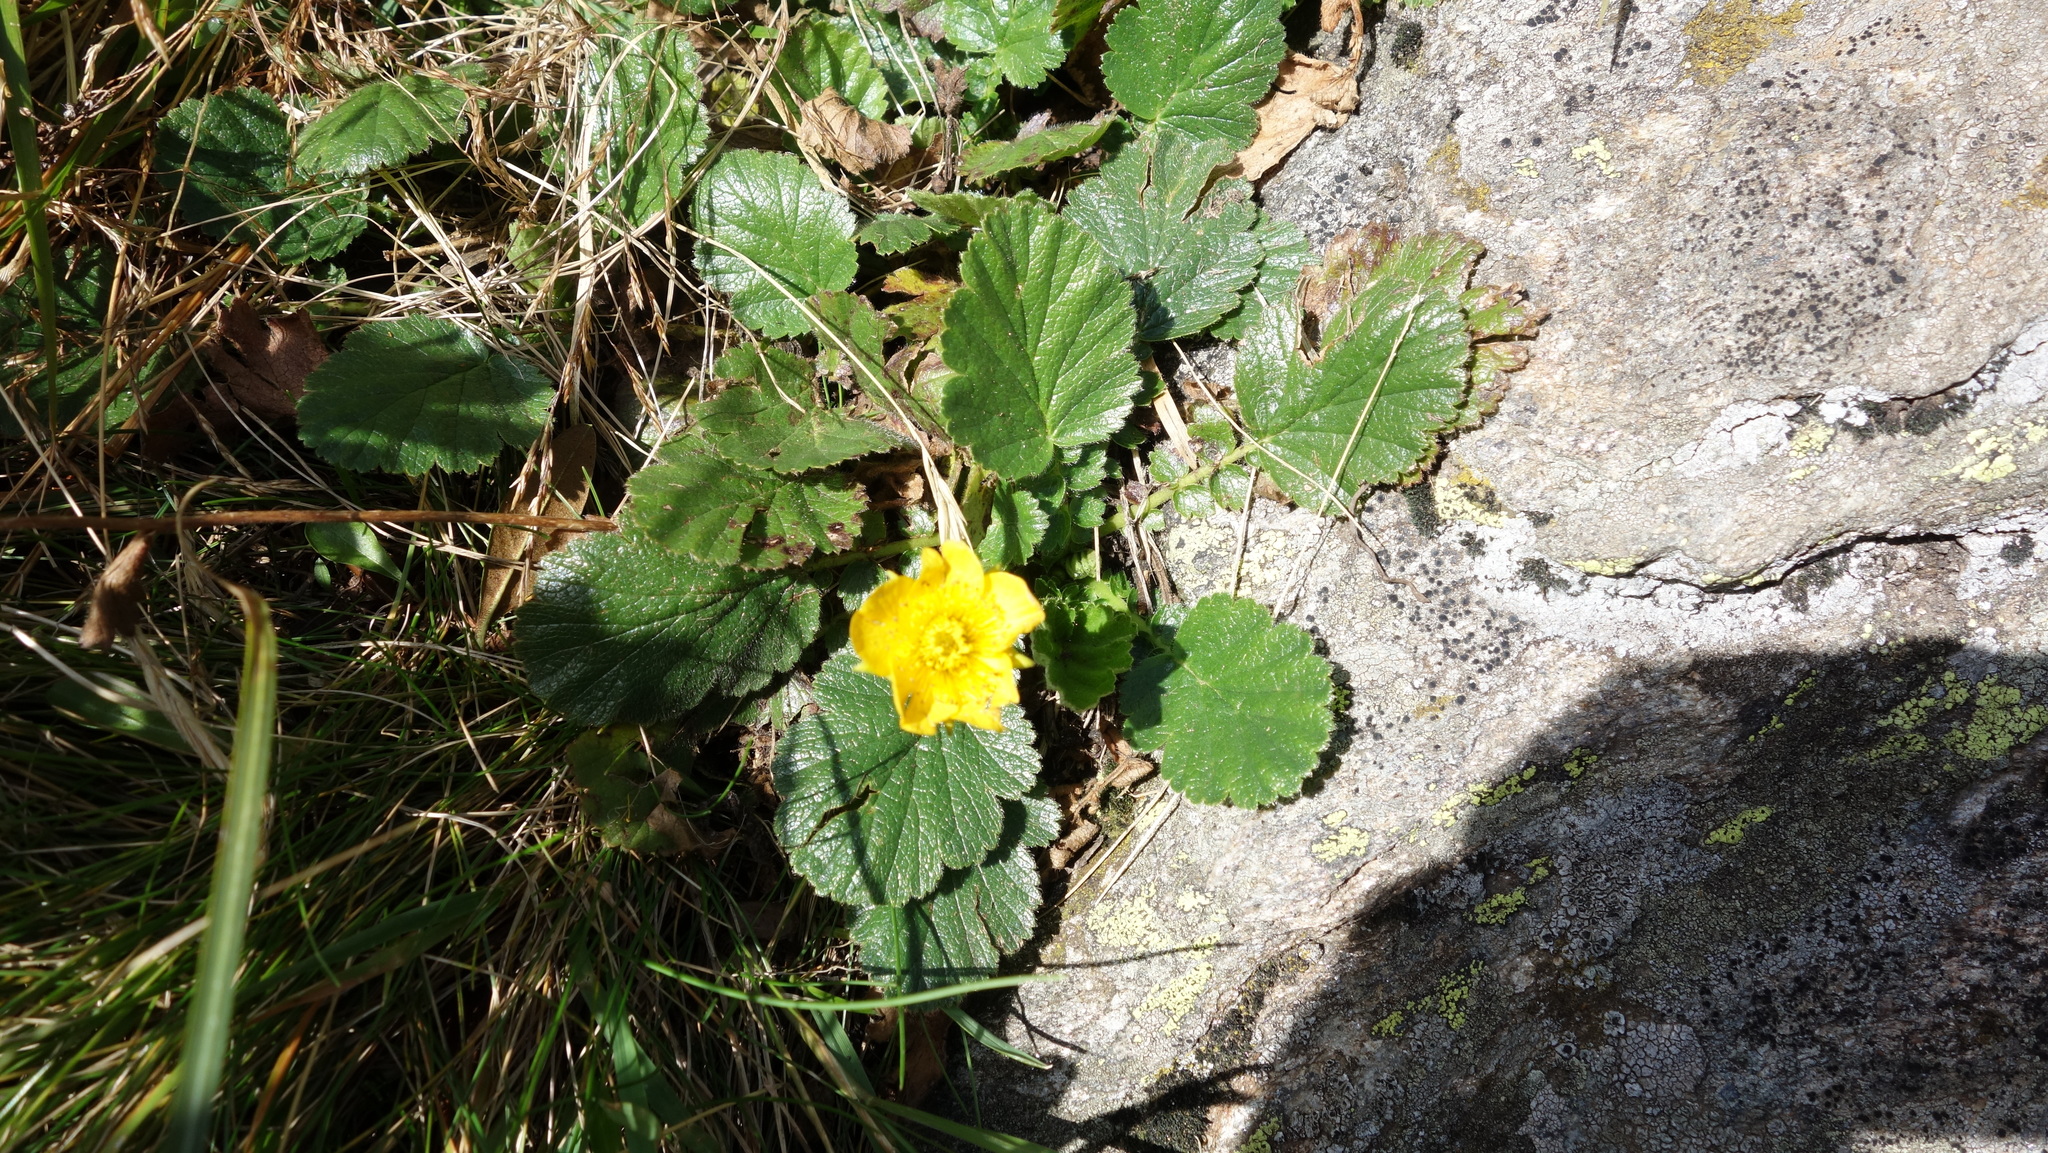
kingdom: Plantae
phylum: Tracheophyta
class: Magnoliopsida
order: Rosales
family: Rosaceae
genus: Geum
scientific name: Geum montanum
